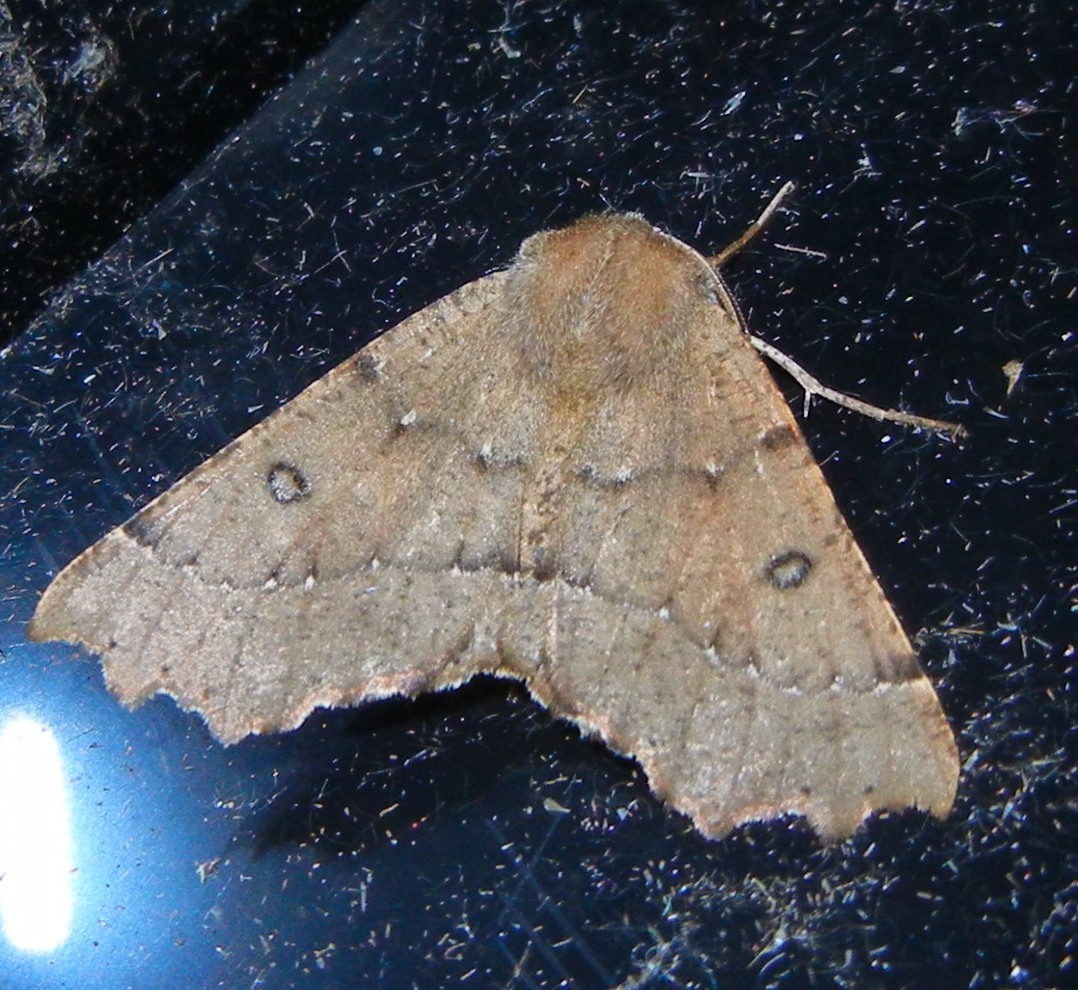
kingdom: Animalia
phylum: Arthropoda
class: Insecta
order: Lepidoptera
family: Geometridae
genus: Odontopera
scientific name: Odontopera bidentata
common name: Scalloped hazel
